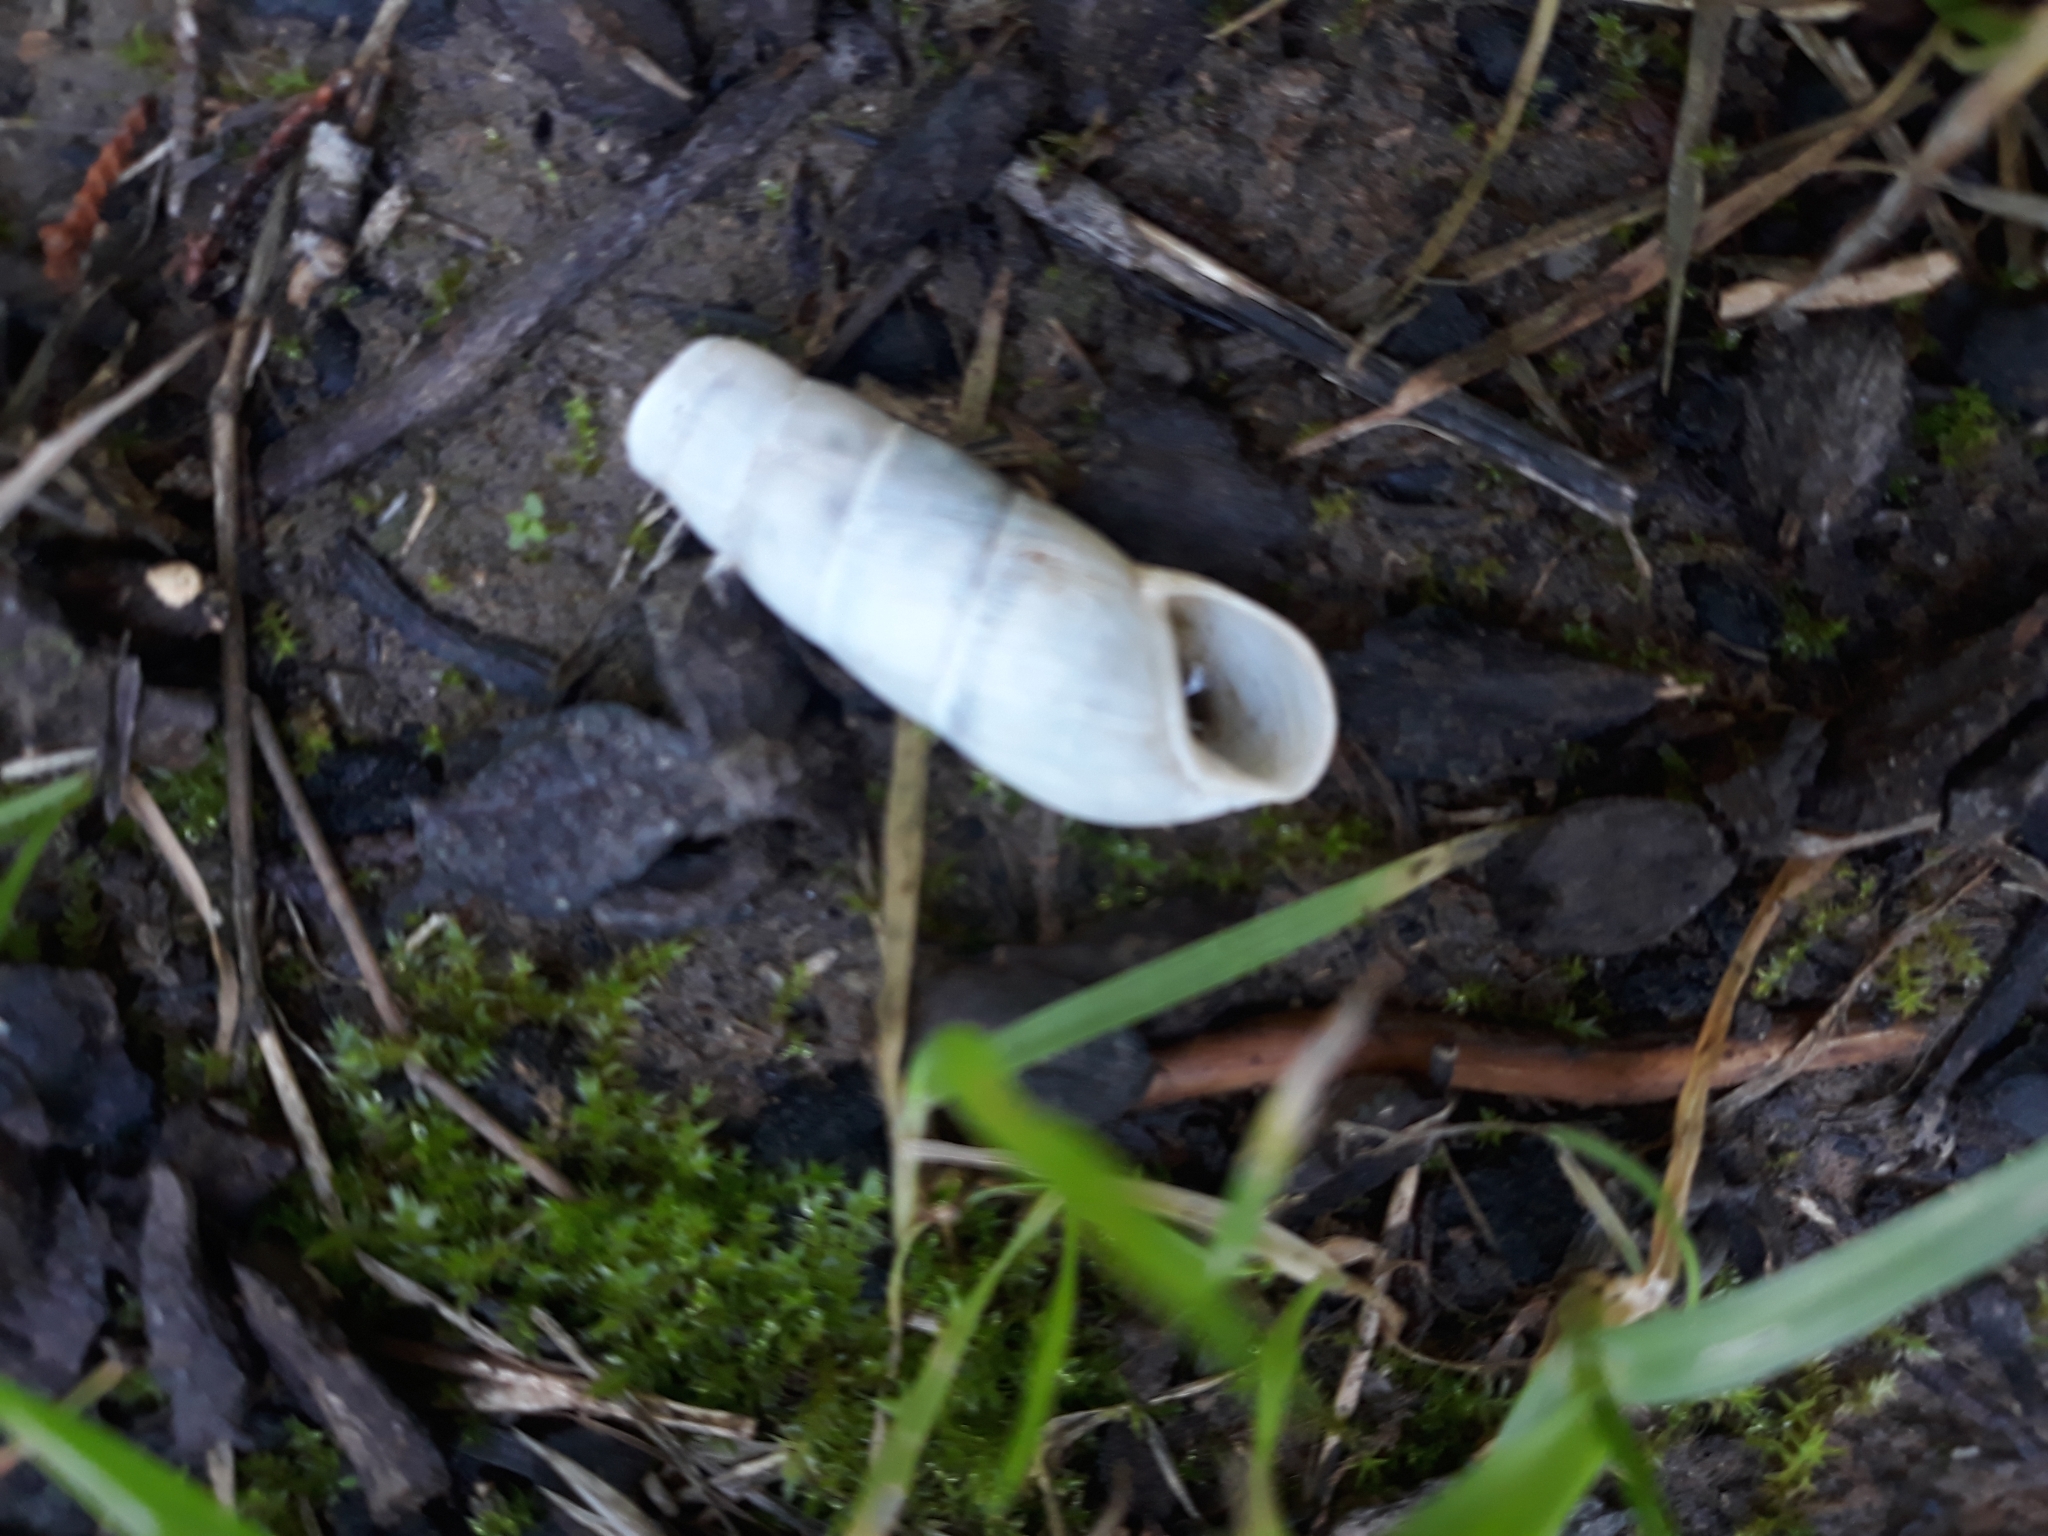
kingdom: Animalia
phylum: Mollusca
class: Gastropoda
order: Stylommatophora
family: Achatinidae
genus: Rumina
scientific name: Rumina decollata
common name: Decollate snail
